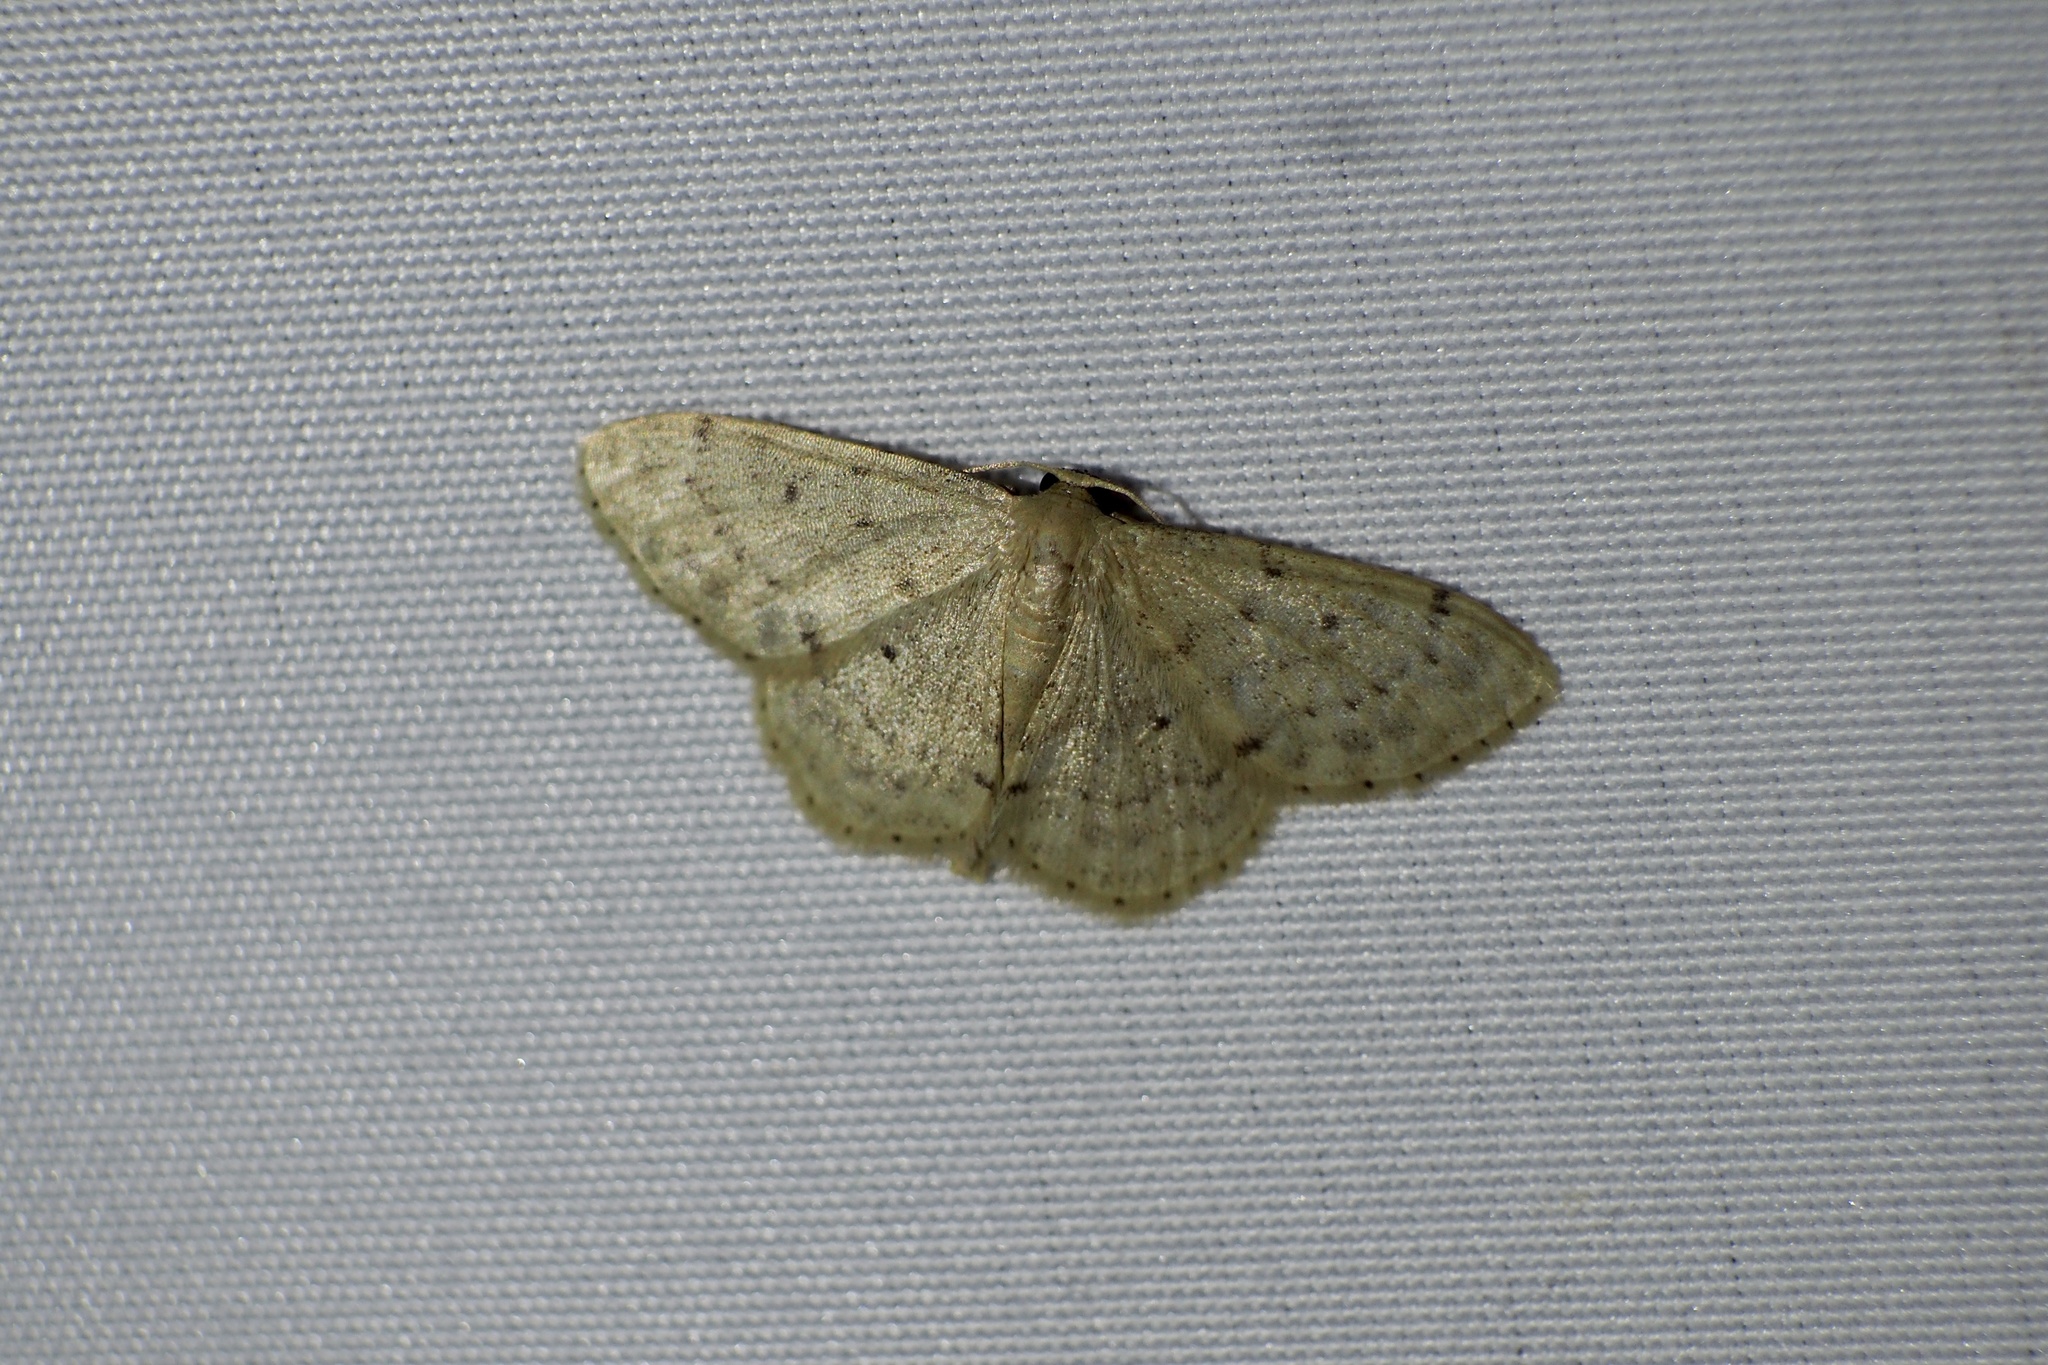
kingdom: Animalia
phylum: Arthropoda
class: Insecta
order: Lepidoptera
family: Geometridae
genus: Idaea
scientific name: Idaea invalida
